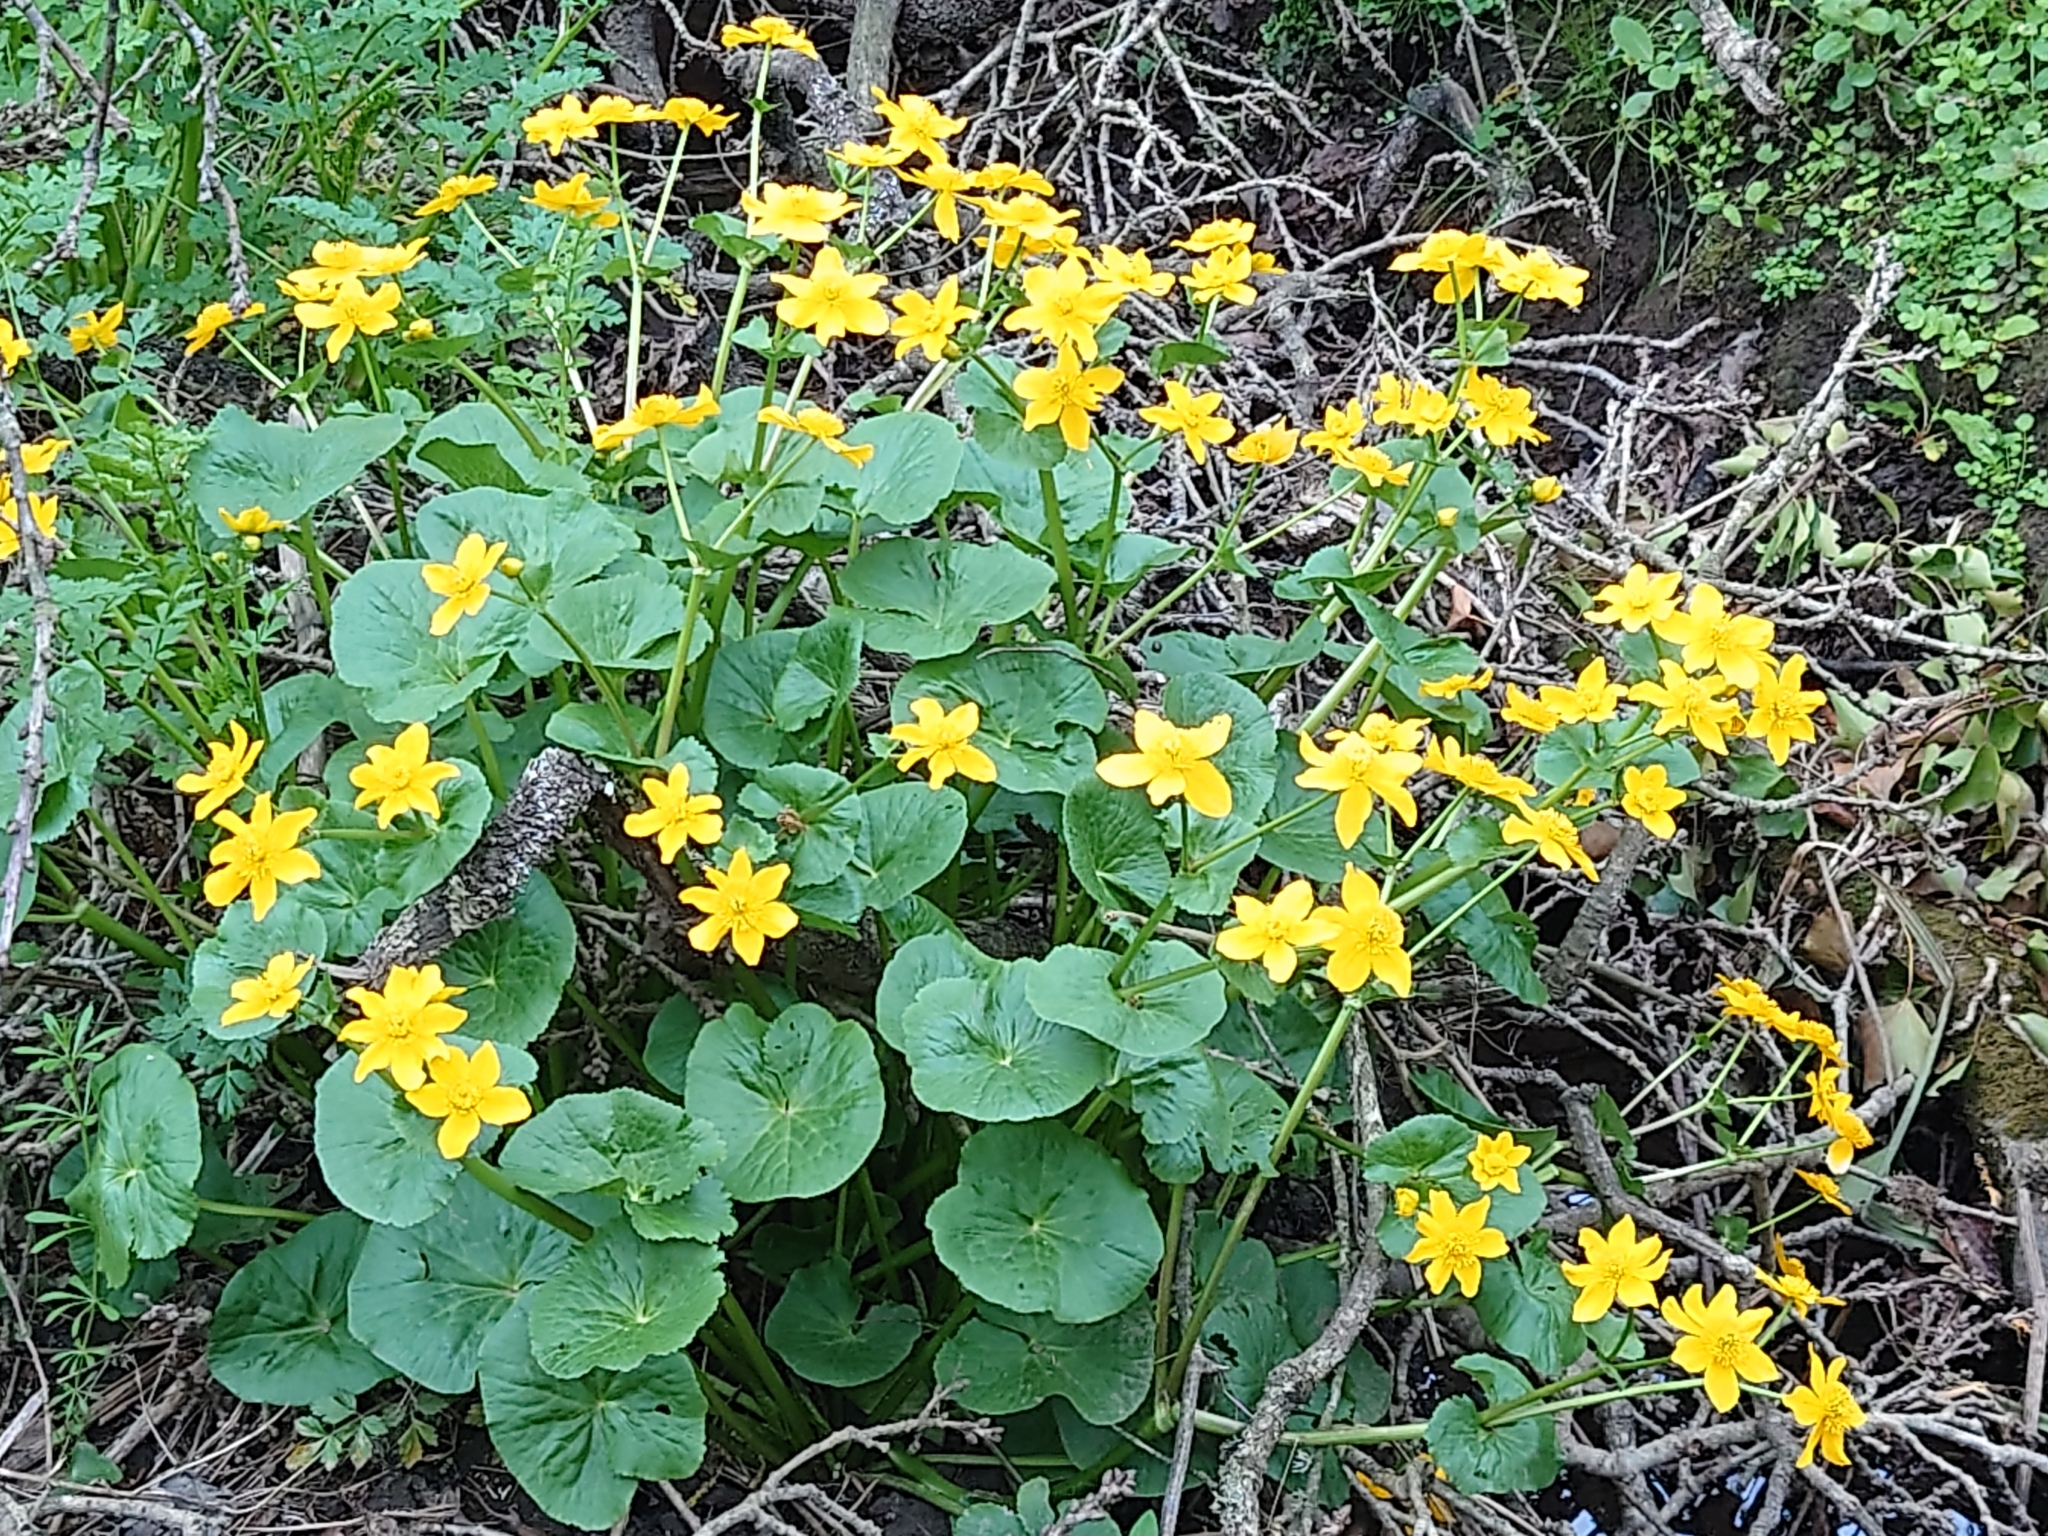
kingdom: Plantae
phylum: Tracheophyta
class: Magnoliopsida
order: Ranunculales
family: Ranunculaceae
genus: Caltha
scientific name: Caltha palustris
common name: Marsh marigold
